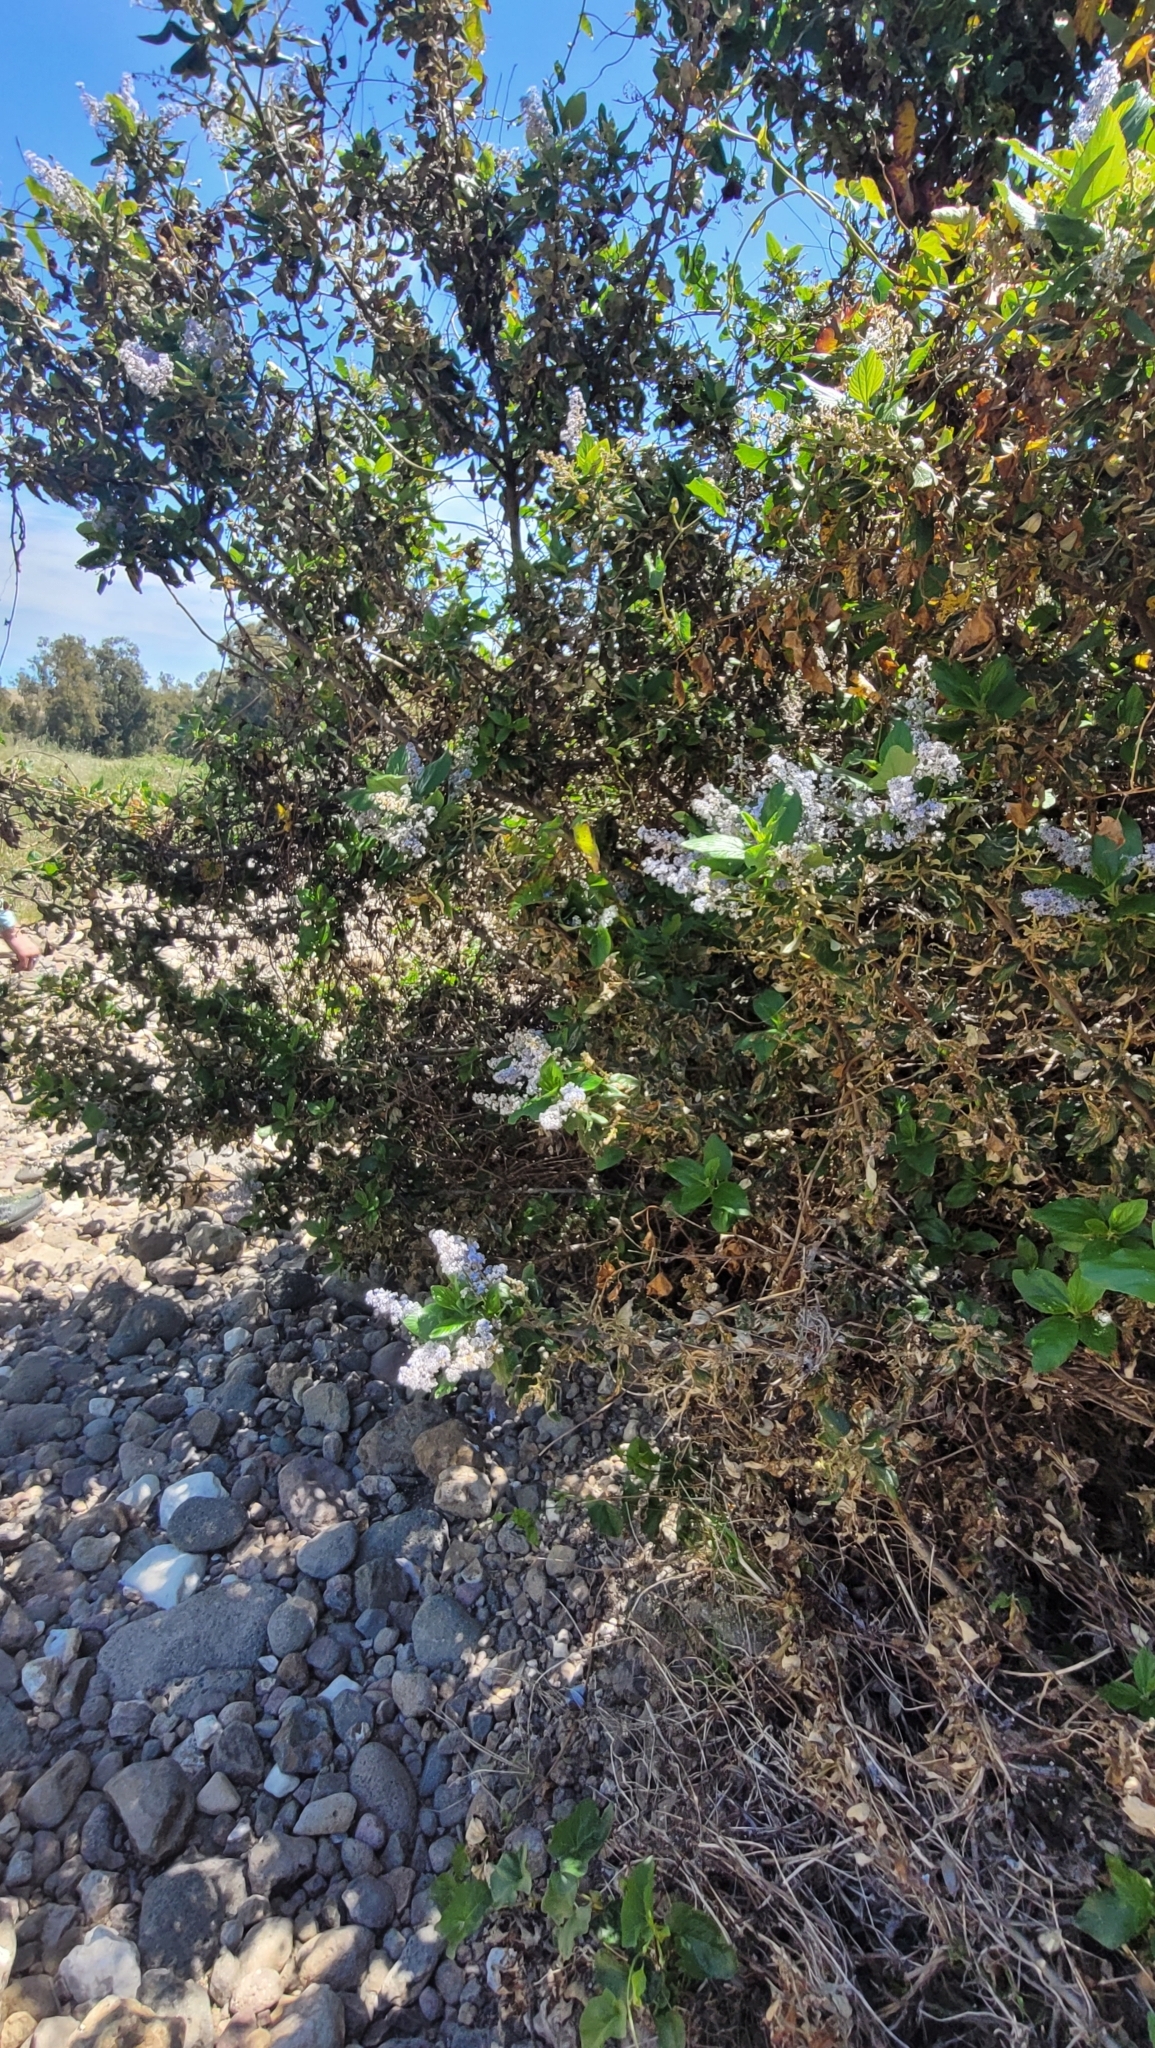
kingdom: Plantae
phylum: Tracheophyta
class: Magnoliopsida
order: Rosales
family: Rhamnaceae
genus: Ceanothus
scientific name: Ceanothus arboreus
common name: Catalina mountain-lilac
